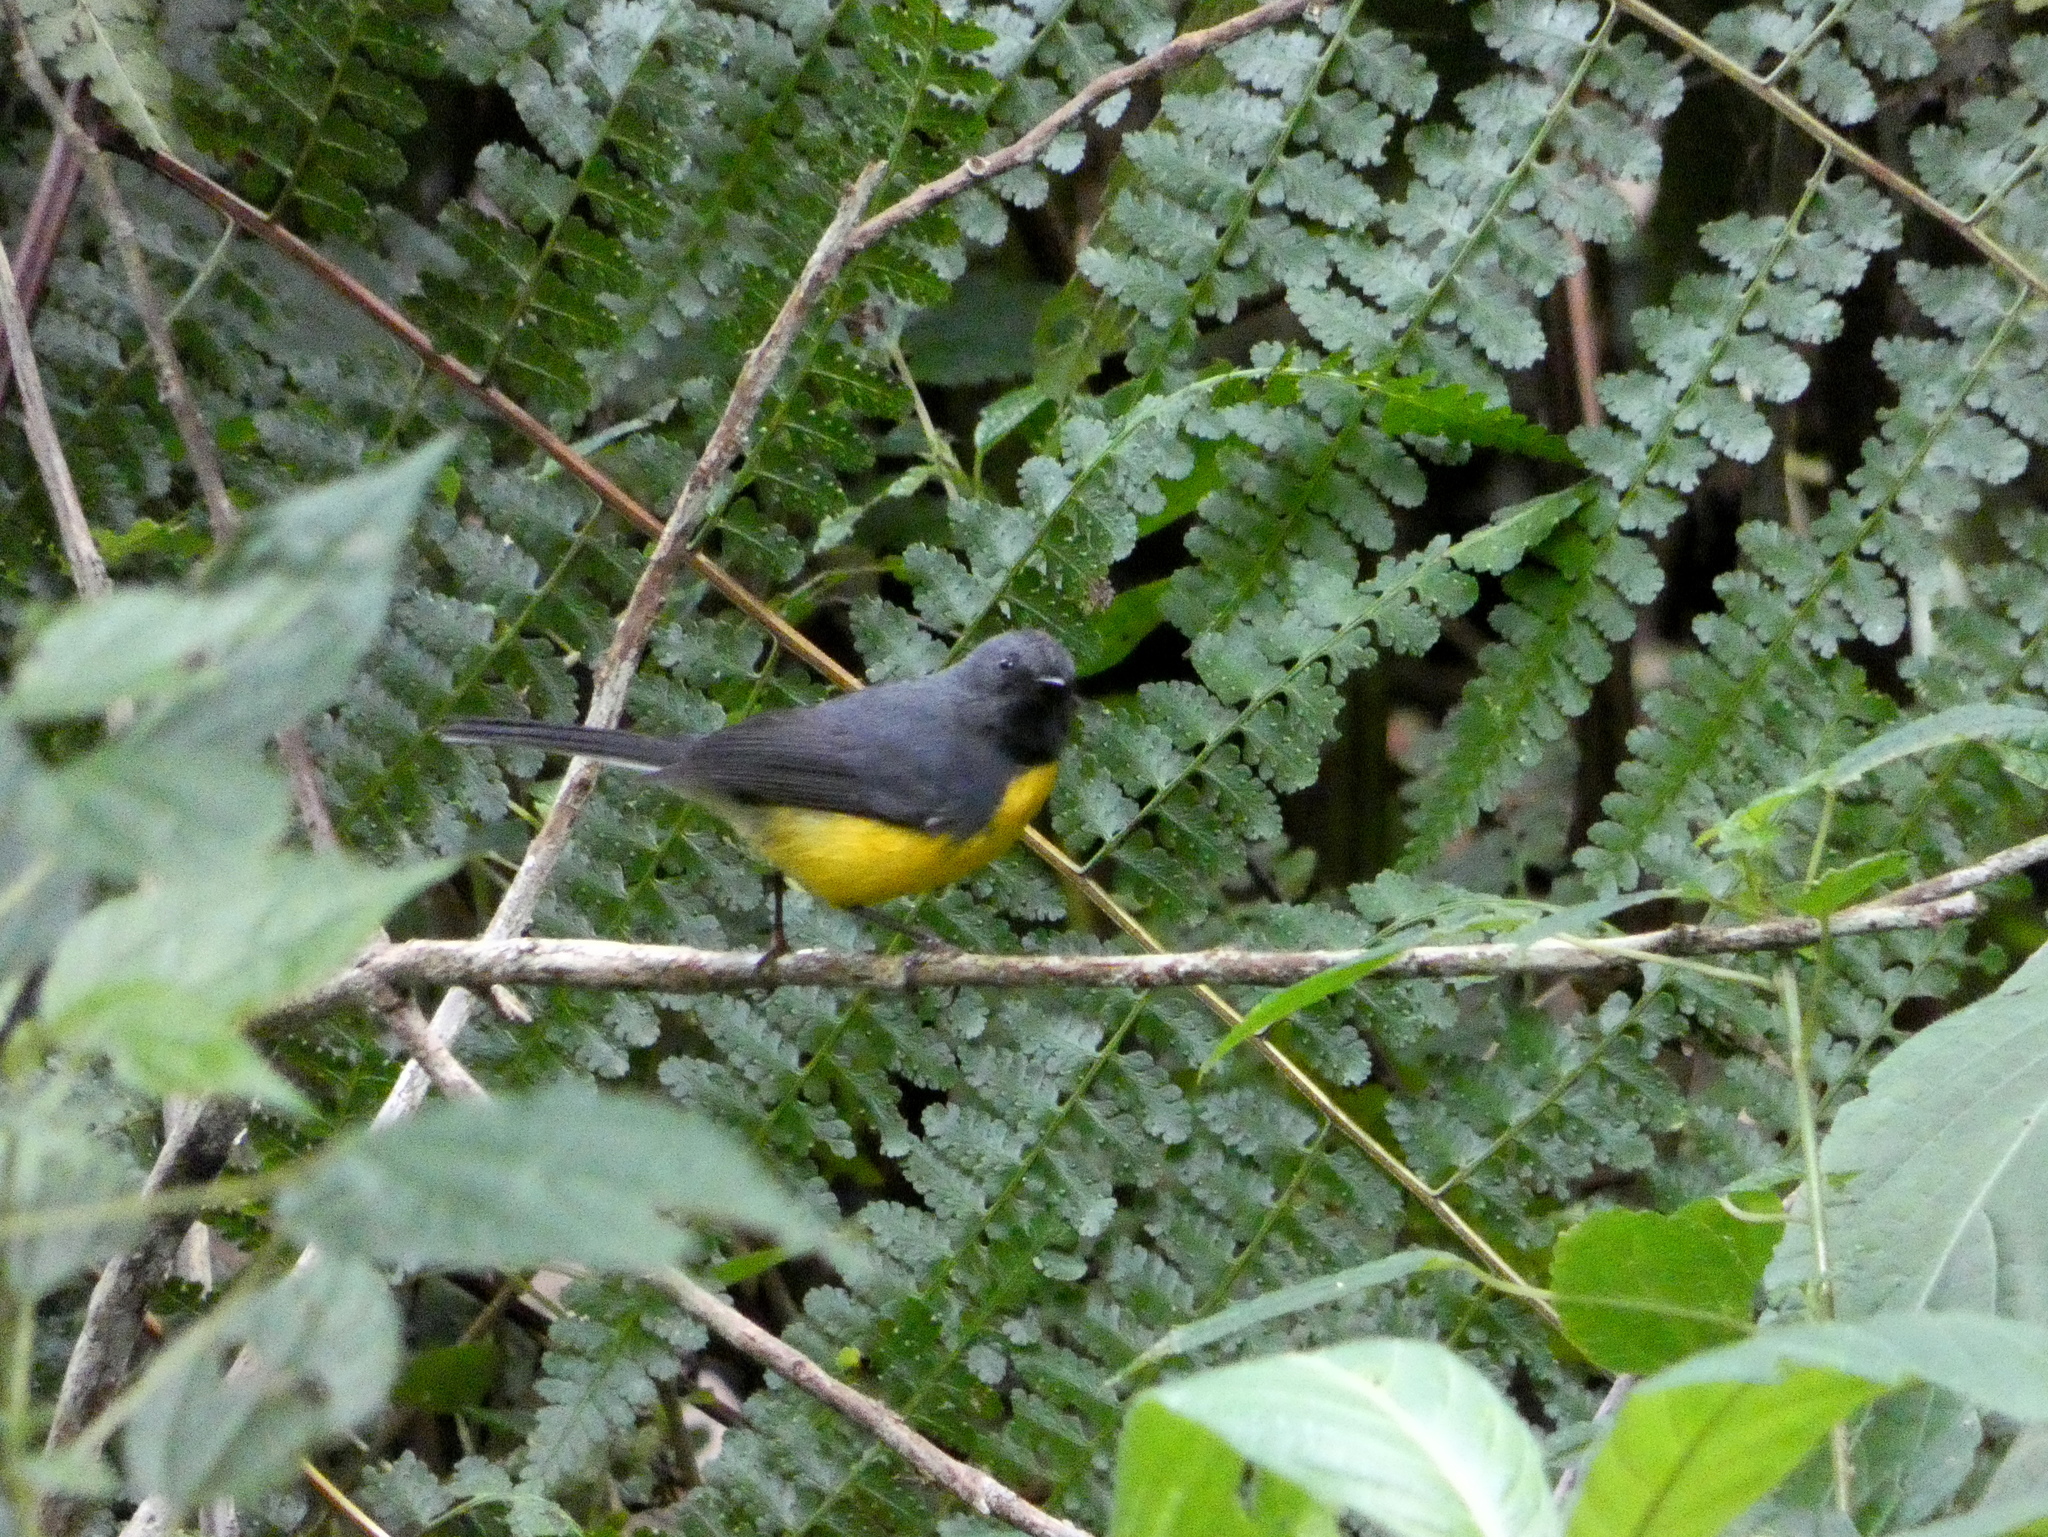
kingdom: Animalia
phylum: Chordata
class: Aves
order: Passeriformes
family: Parulidae
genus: Myioborus
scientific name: Myioborus miniatus
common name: Slate-throated redstart
